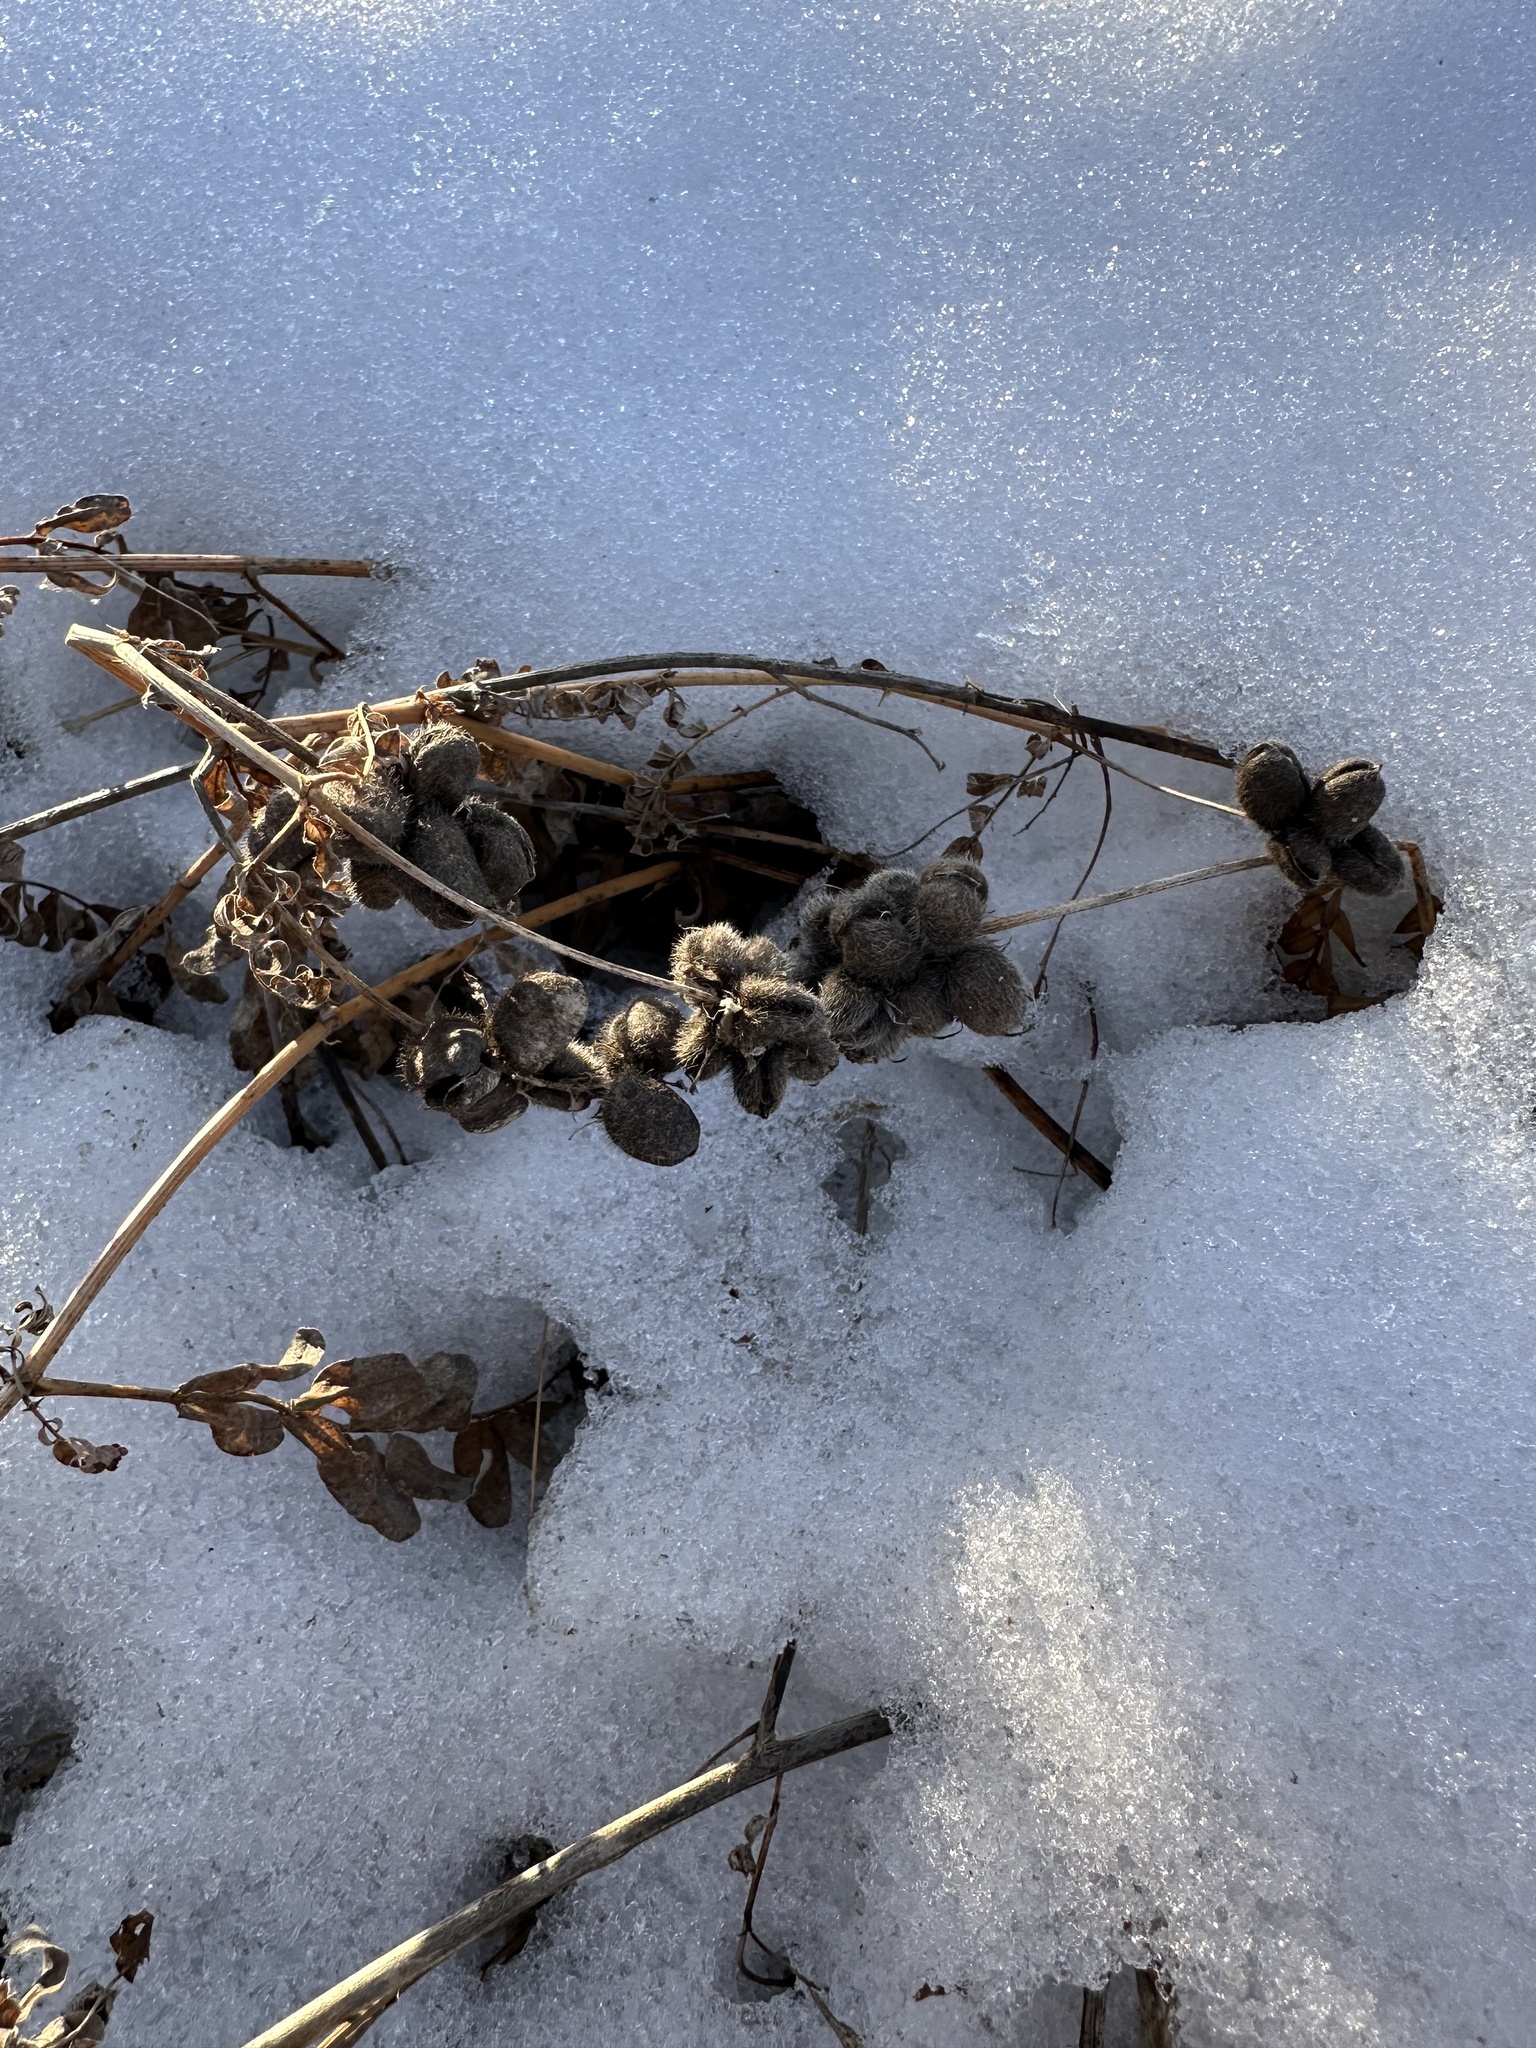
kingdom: Plantae
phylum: Tracheophyta
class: Magnoliopsida
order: Fabales
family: Fabaceae
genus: Astragalus
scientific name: Astragalus cicer
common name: Chick-pea milk-vetch
